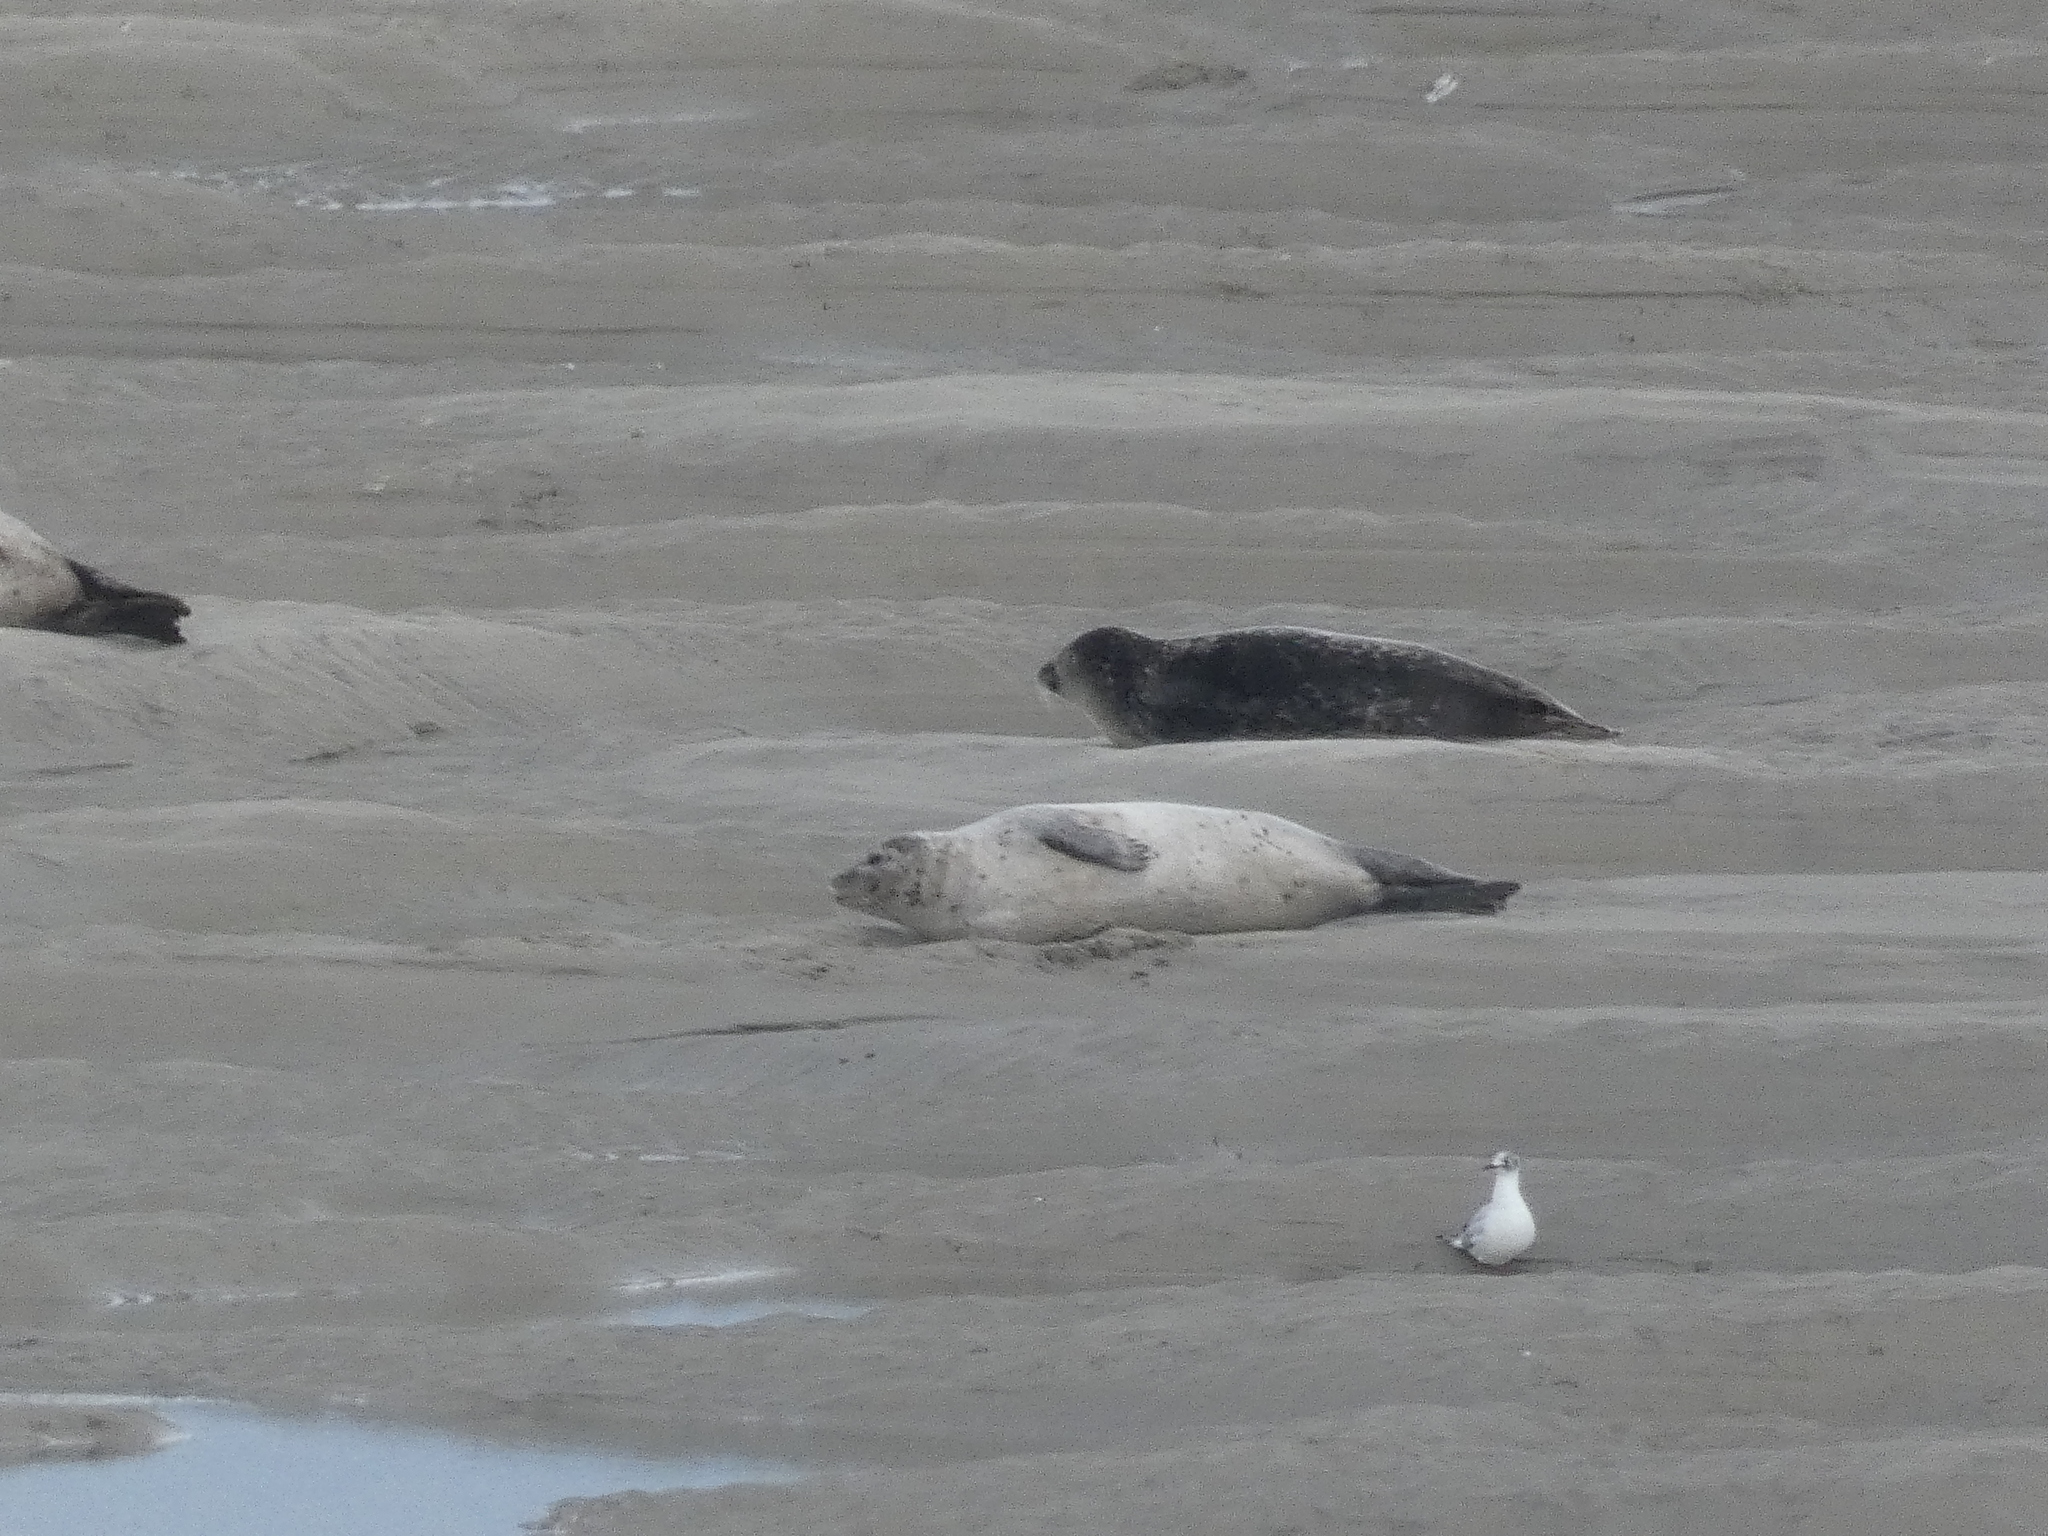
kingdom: Animalia
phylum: Chordata
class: Aves
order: Charadriiformes
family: Laridae
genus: Chroicocephalus
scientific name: Chroicocephalus ridibundus
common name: Black-headed gull
